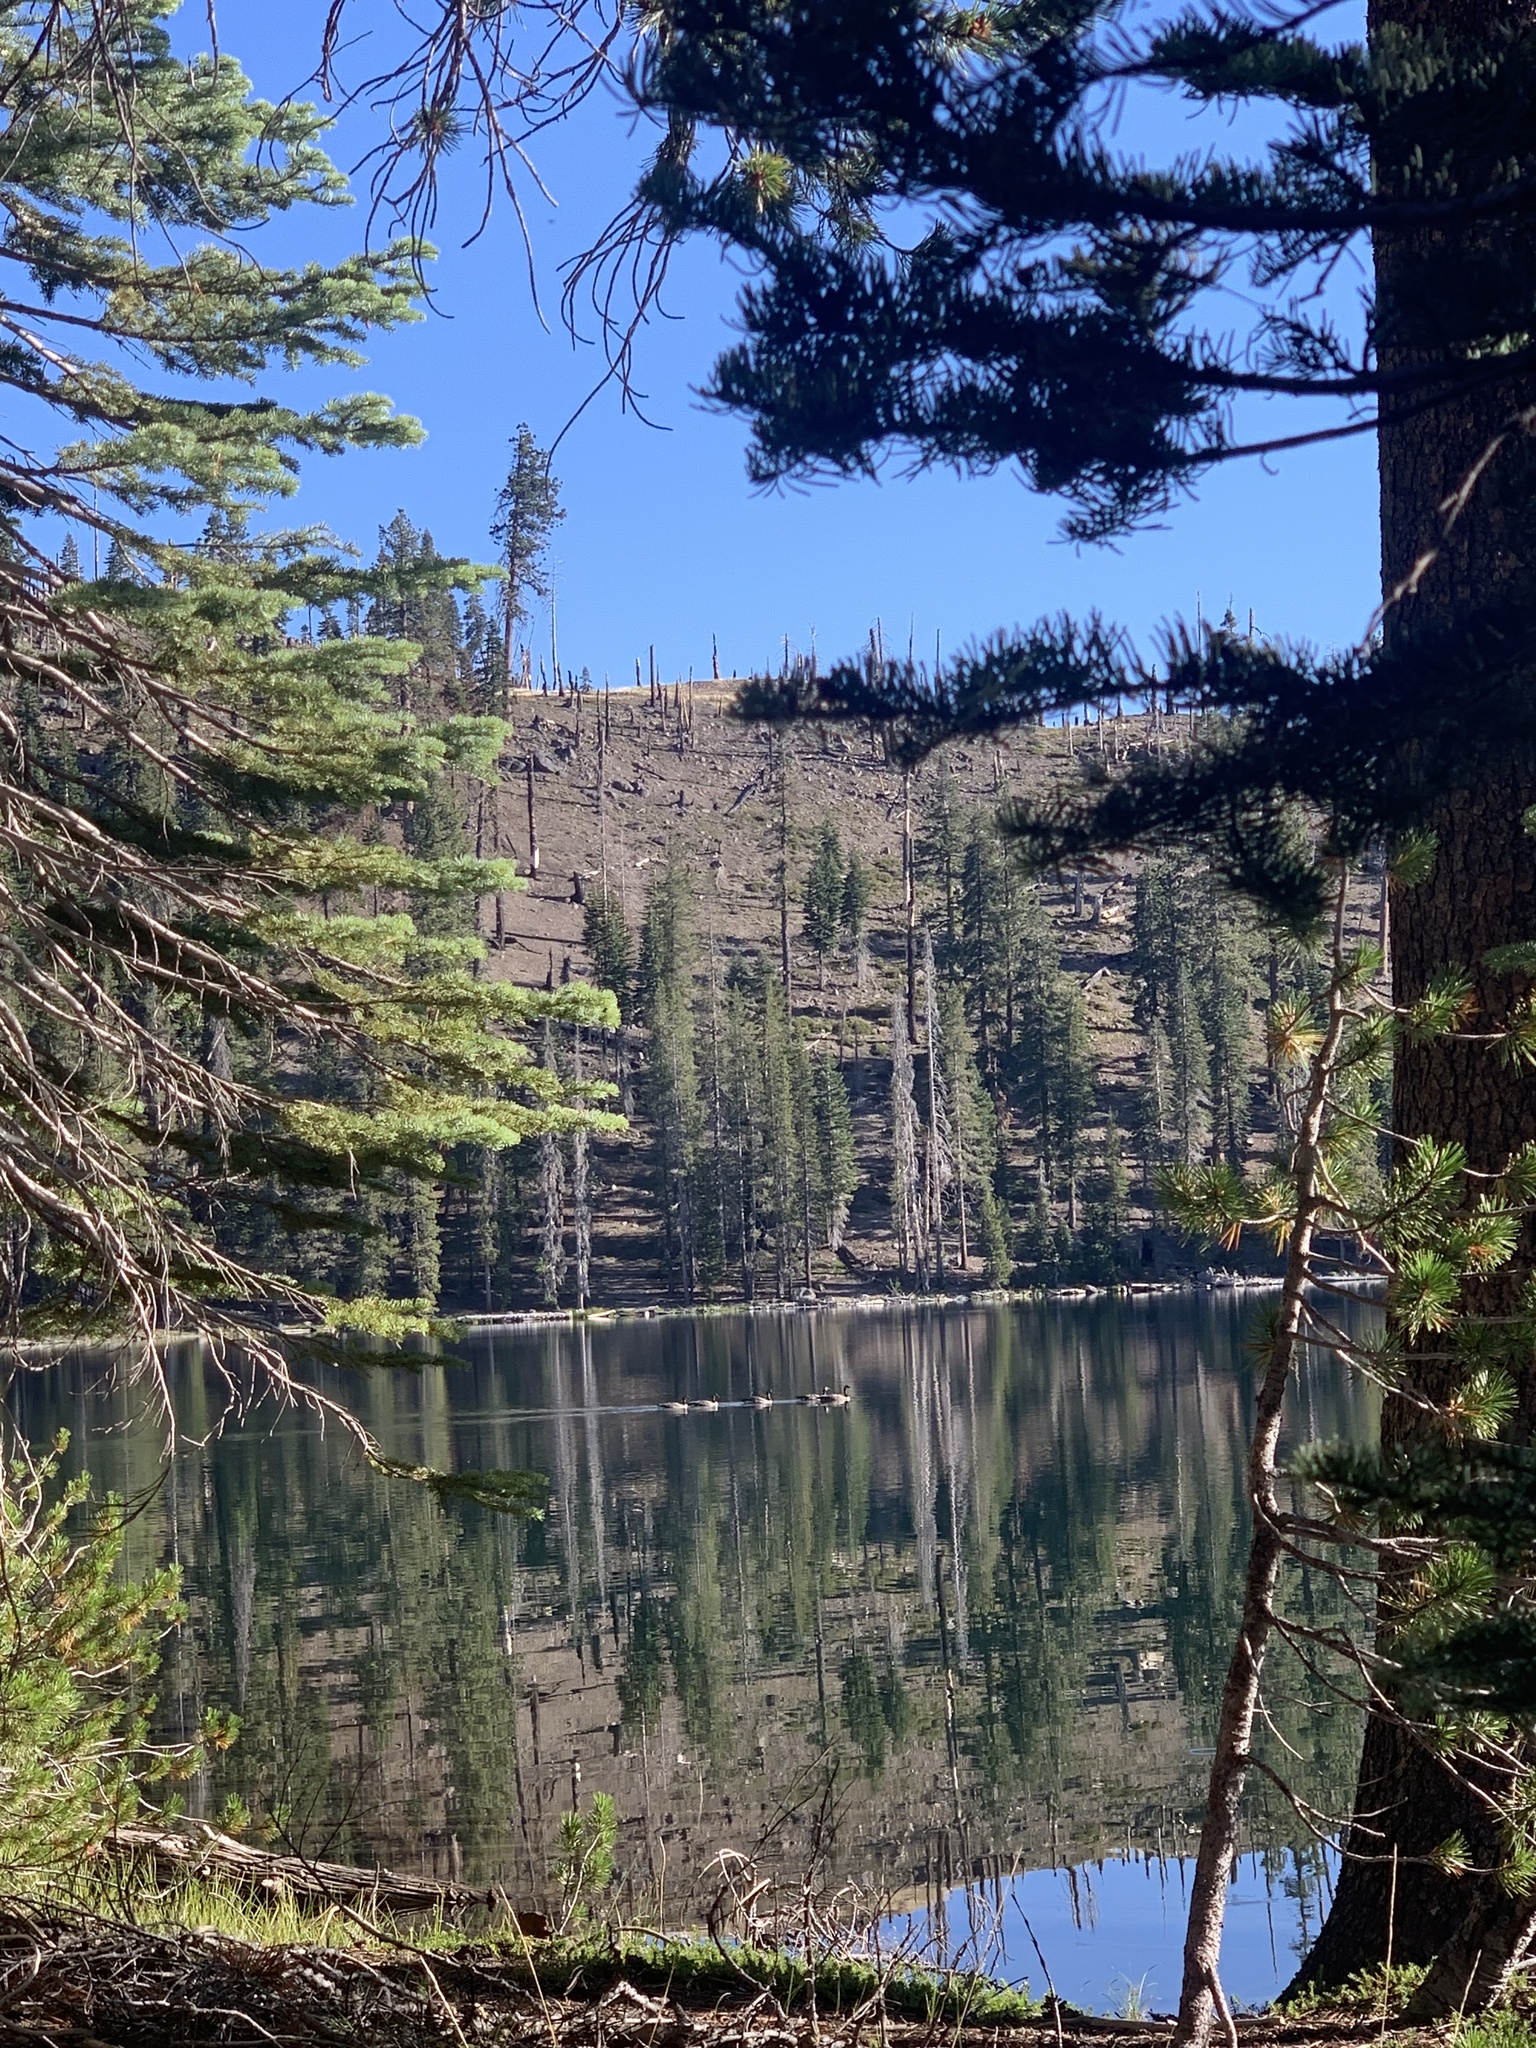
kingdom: Animalia
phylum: Chordata
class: Aves
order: Anseriformes
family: Anatidae
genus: Branta
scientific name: Branta canadensis
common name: Canada goose
